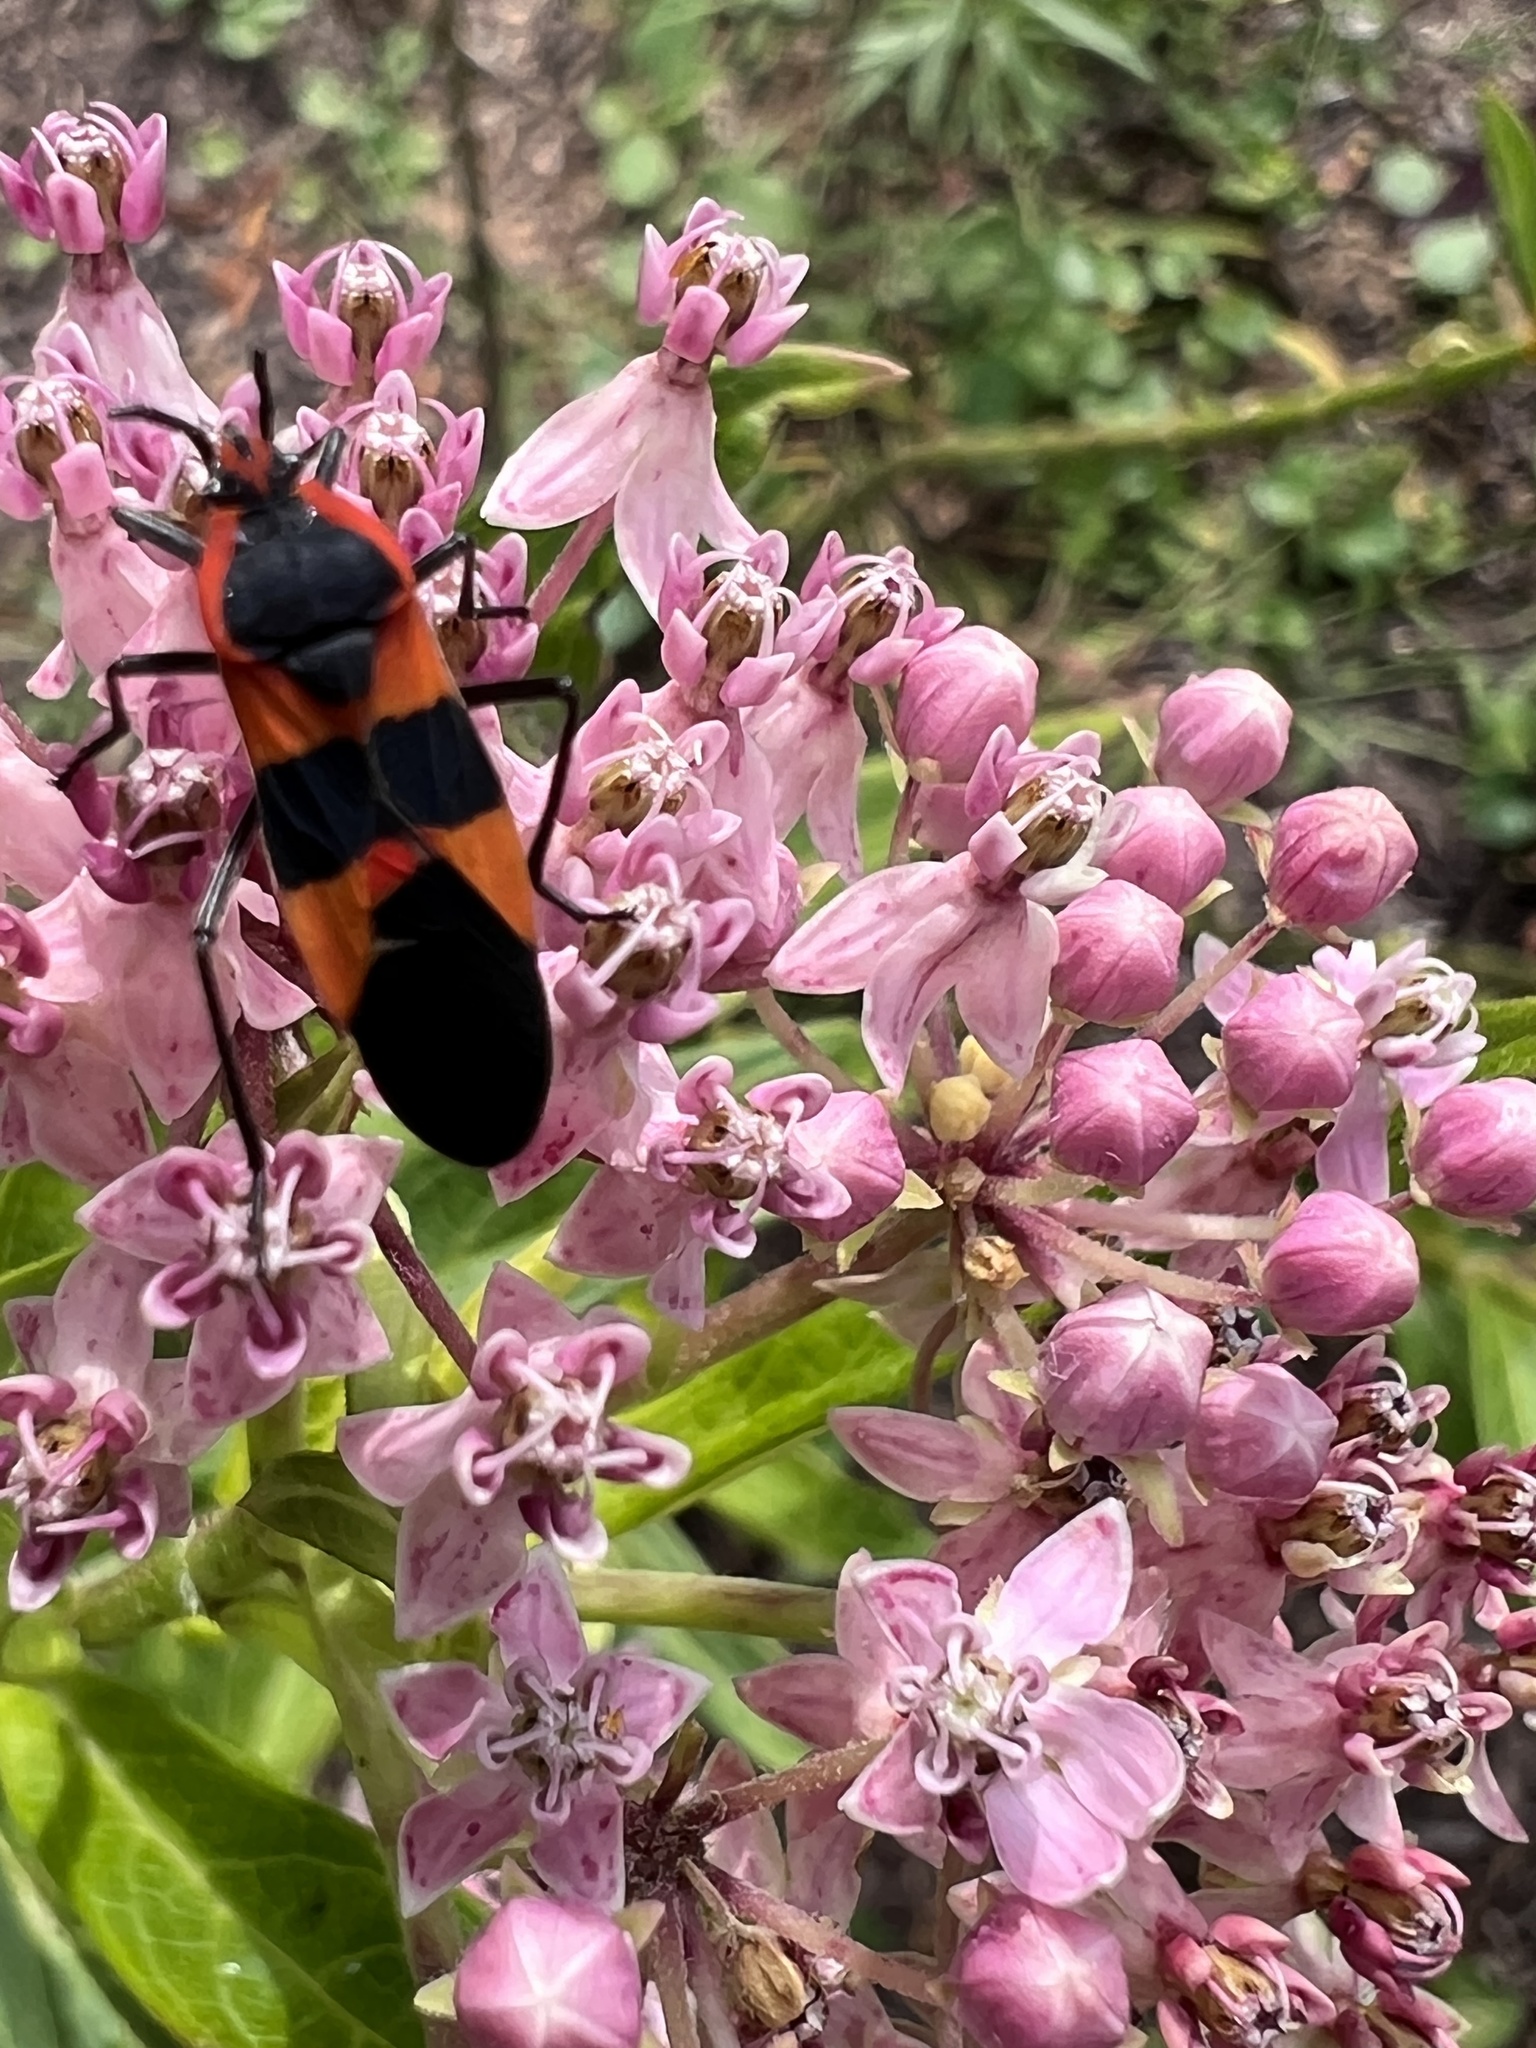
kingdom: Animalia
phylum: Arthropoda
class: Insecta
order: Hemiptera
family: Lygaeidae
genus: Oncopeltus
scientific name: Oncopeltus fasciatus
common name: Large milkweed bug
